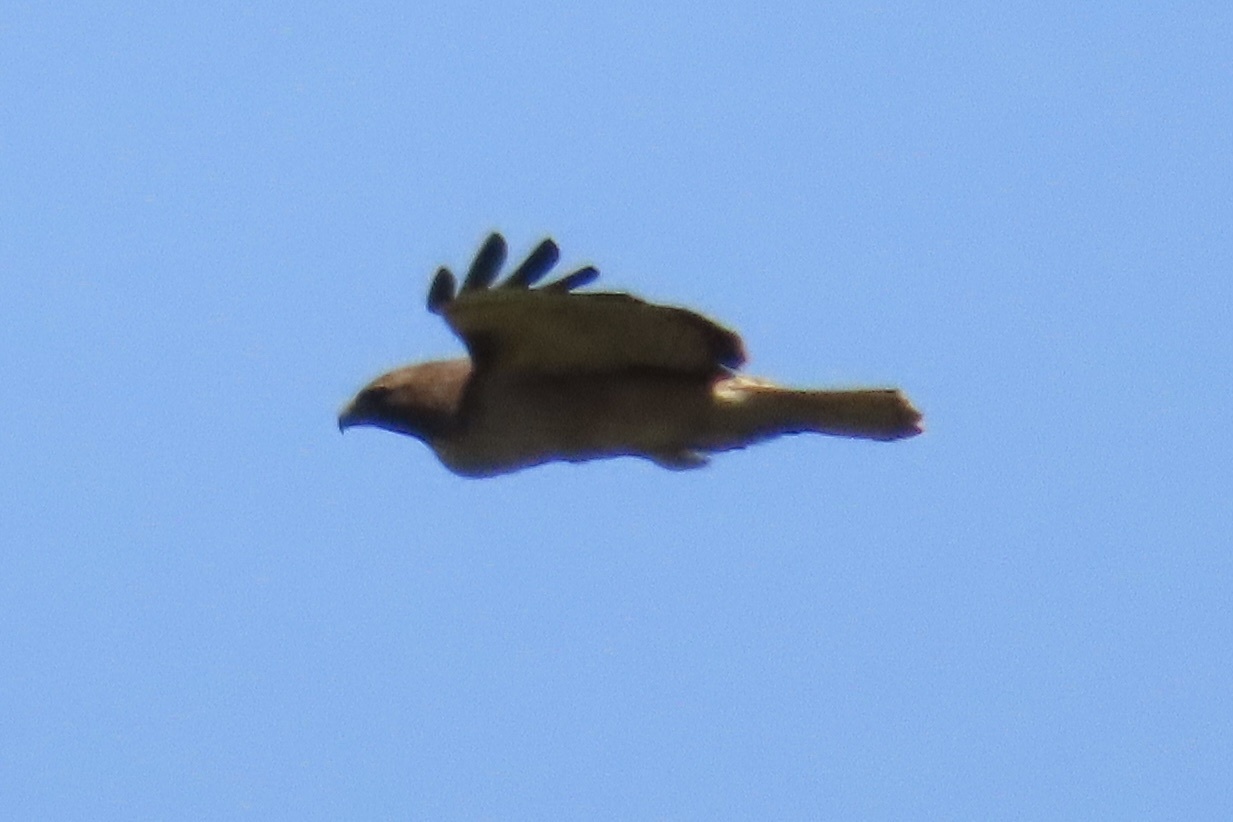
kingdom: Animalia
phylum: Chordata
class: Aves
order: Accipitriformes
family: Accipitridae
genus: Buteo
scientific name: Buteo jamaicensis
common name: Red-tailed hawk
